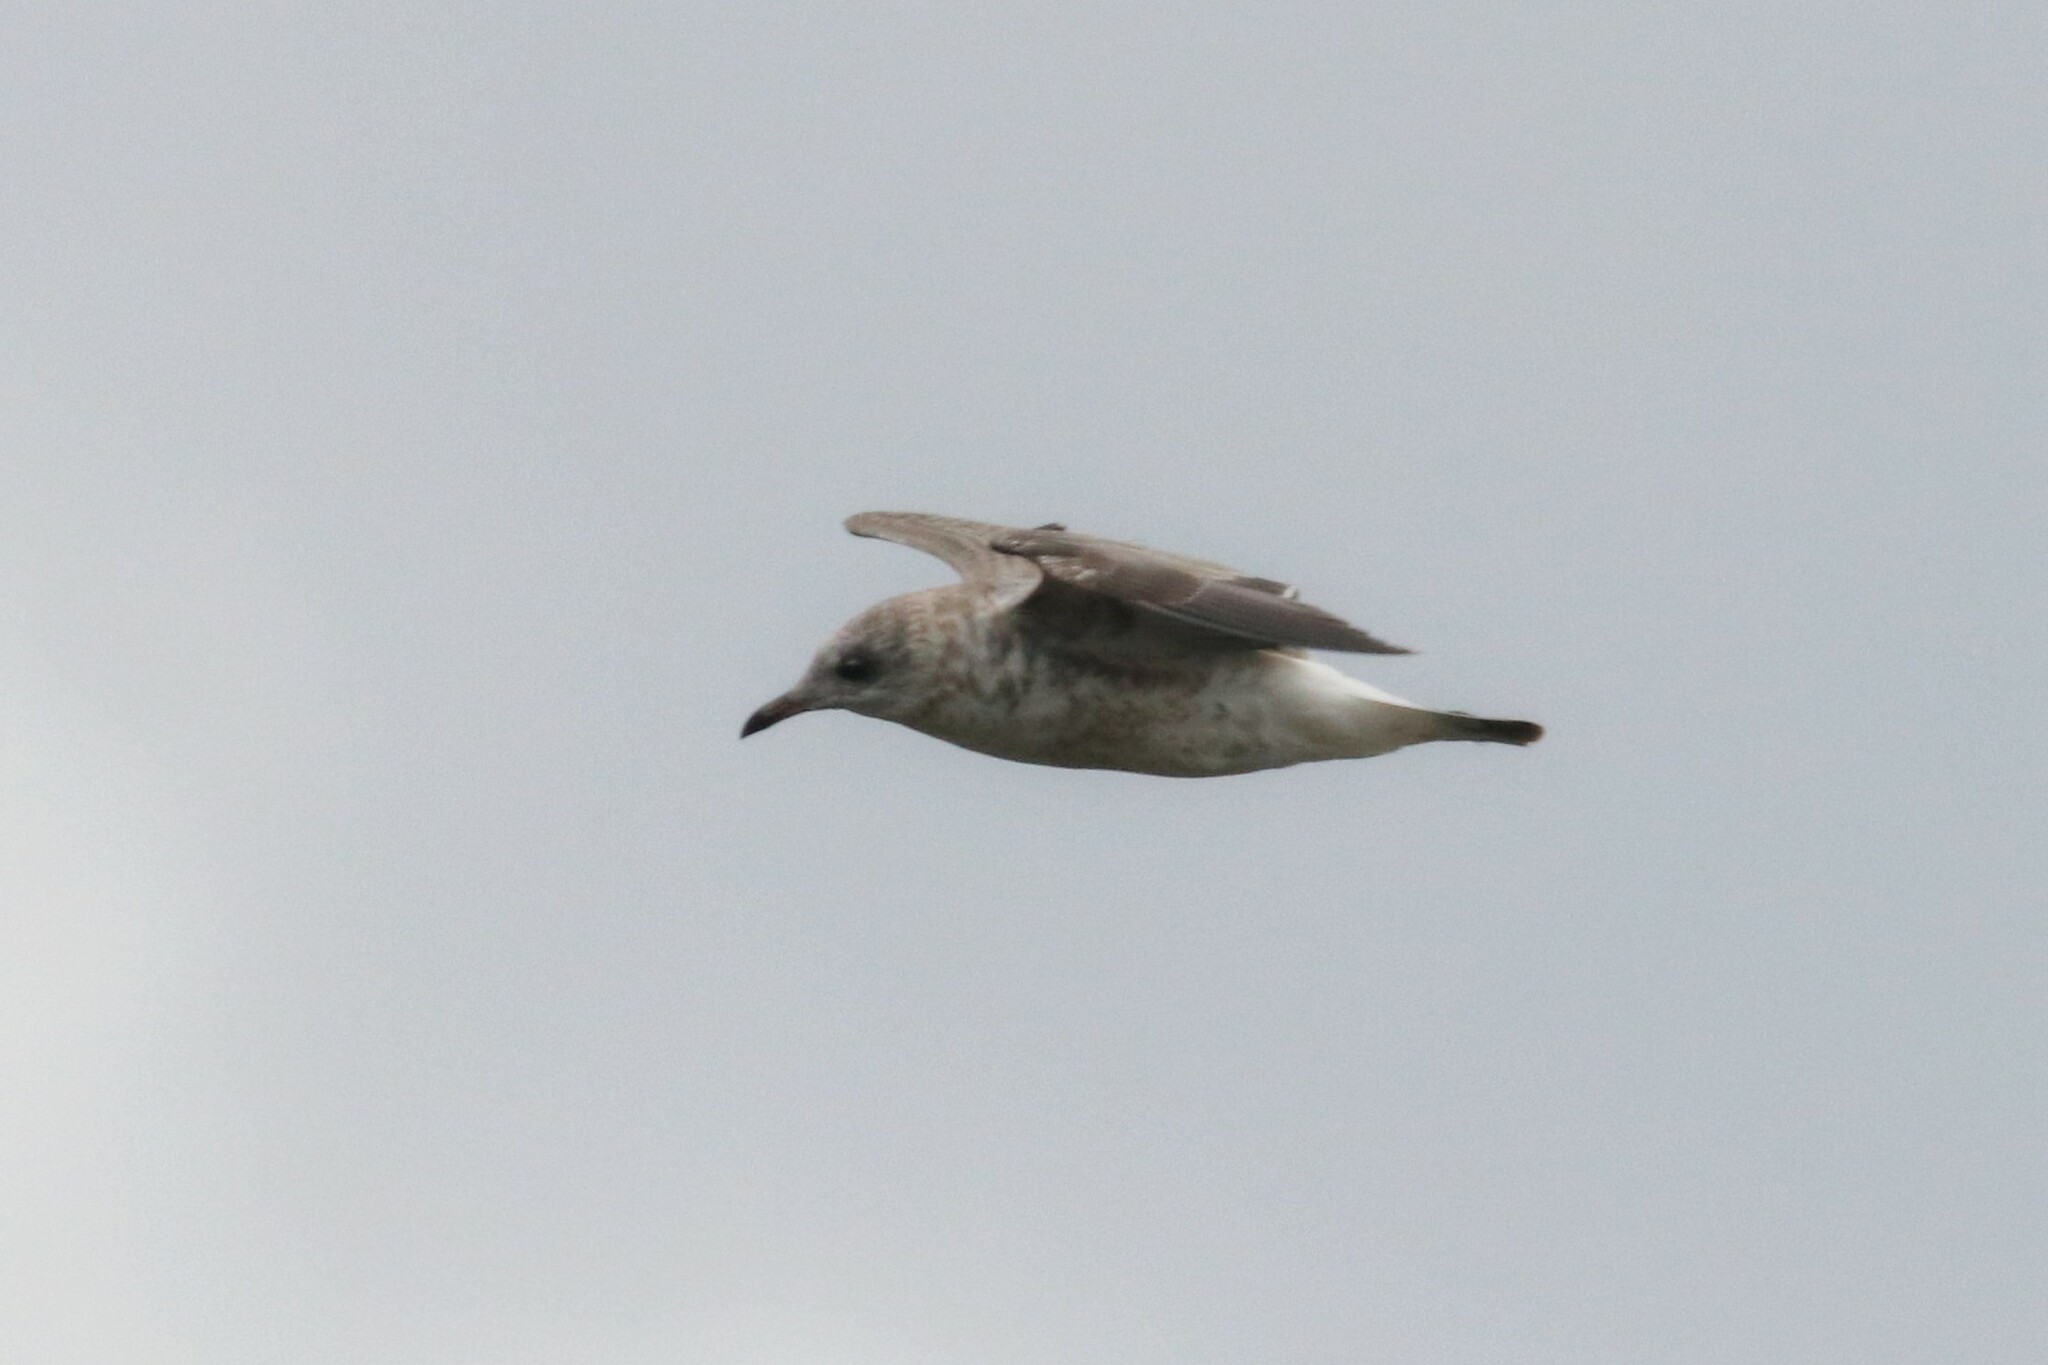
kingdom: Animalia
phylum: Chordata
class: Aves
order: Charadriiformes
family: Laridae
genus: Larus
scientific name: Larus canus
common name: Mew gull
